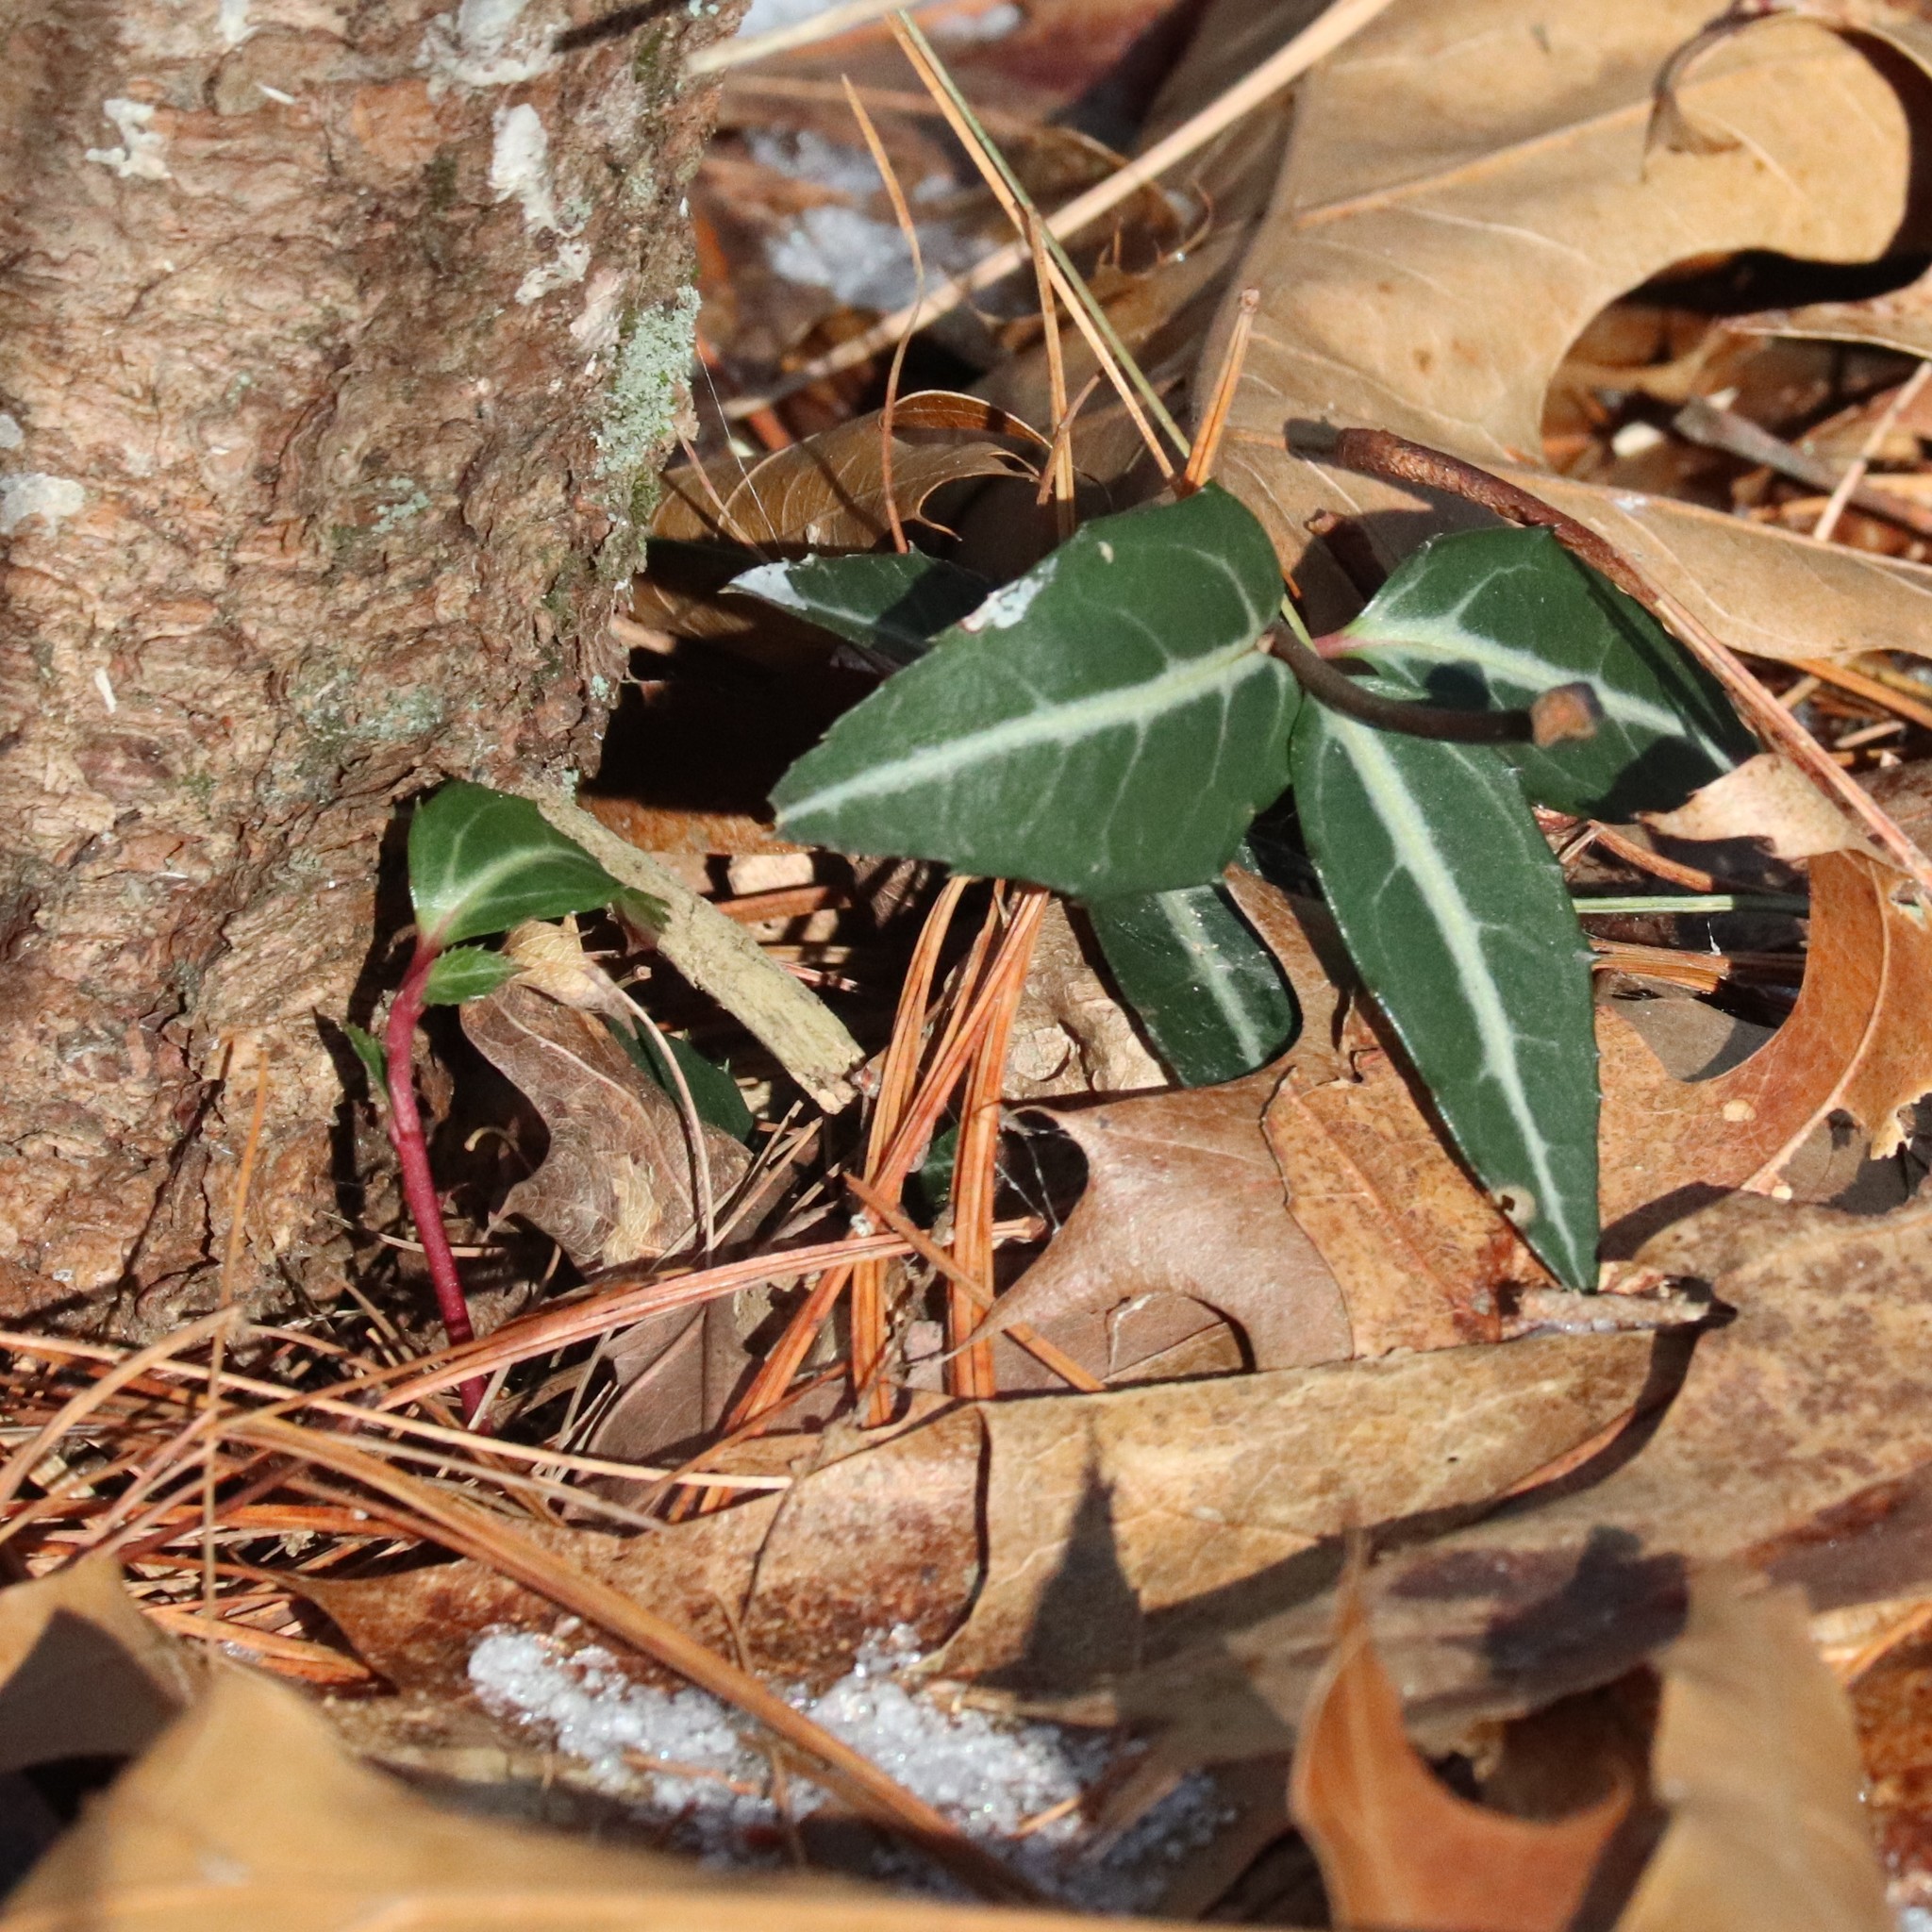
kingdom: Plantae
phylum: Tracheophyta
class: Magnoliopsida
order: Ericales
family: Ericaceae
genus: Chimaphila
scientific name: Chimaphila maculata
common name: Spotted pipsissewa
